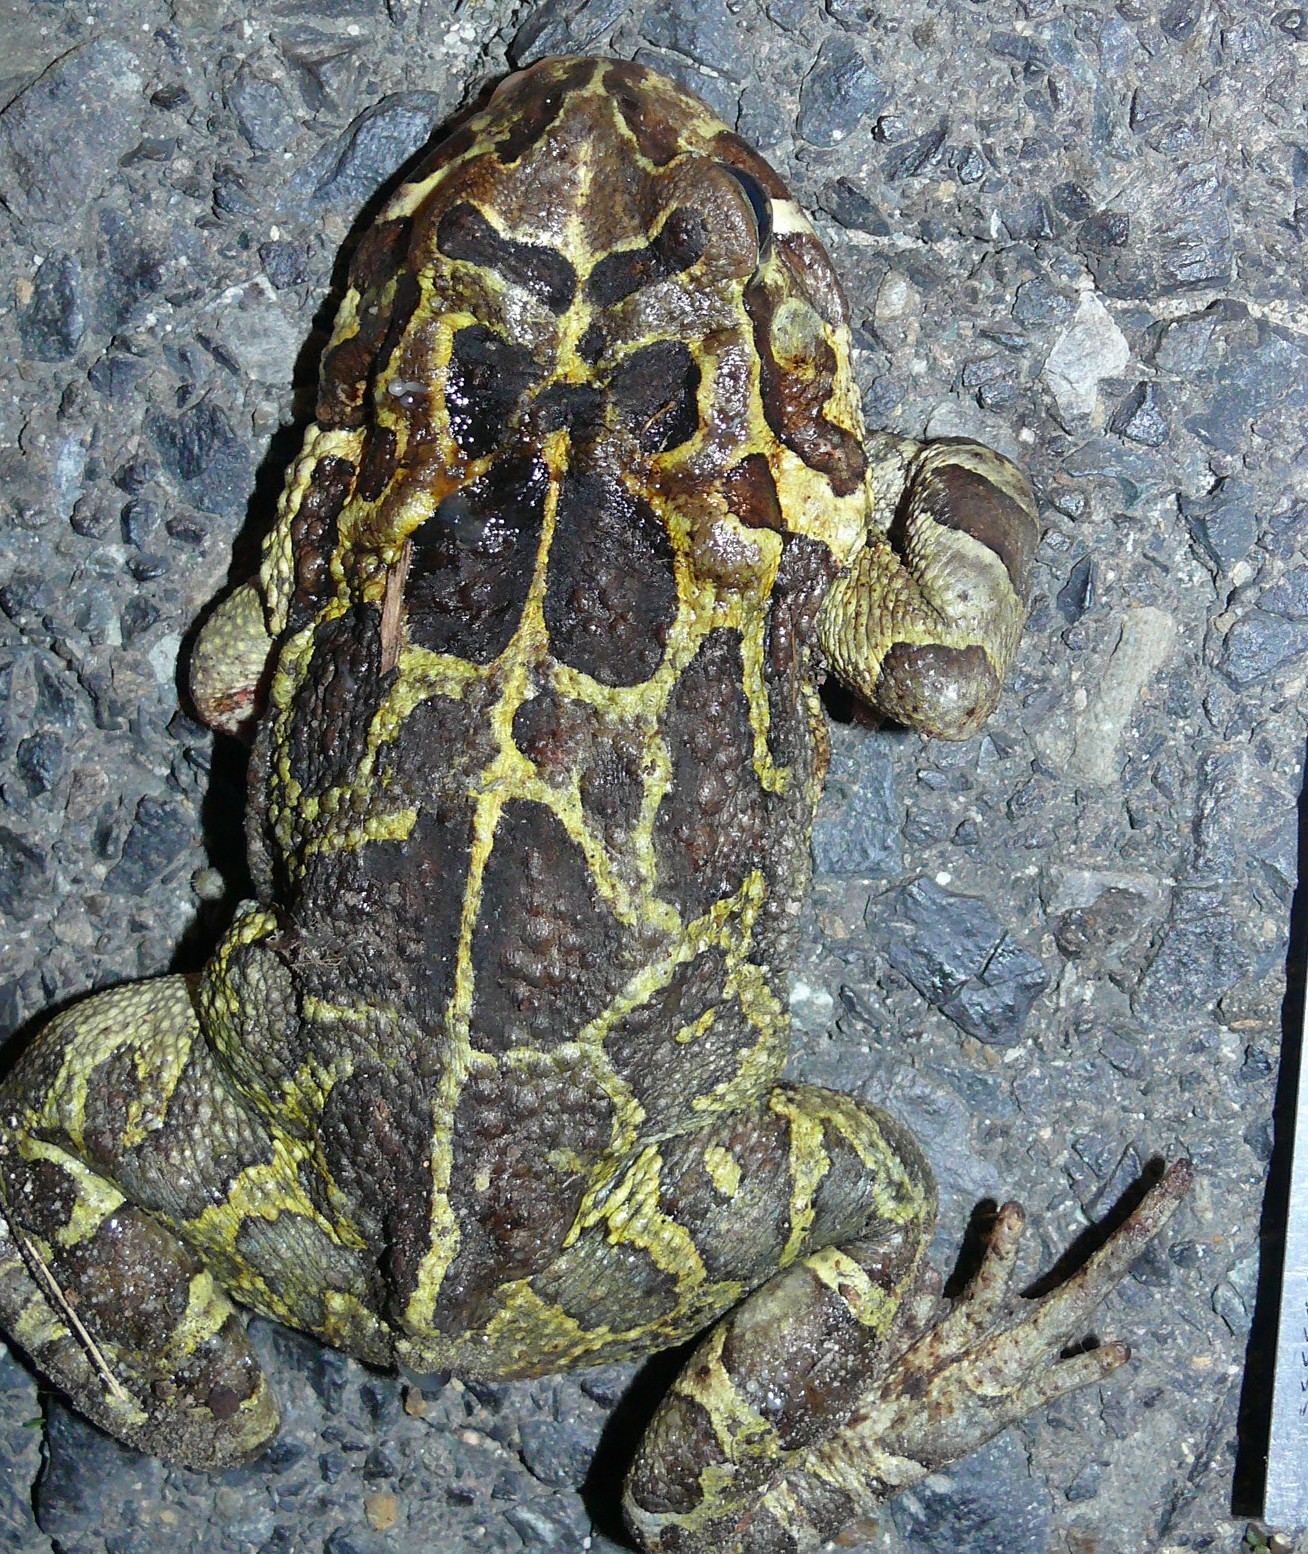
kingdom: Animalia
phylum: Chordata
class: Amphibia
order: Anura
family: Bufonidae
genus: Sclerophrys
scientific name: Sclerophrys pantherina
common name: Panther toad
